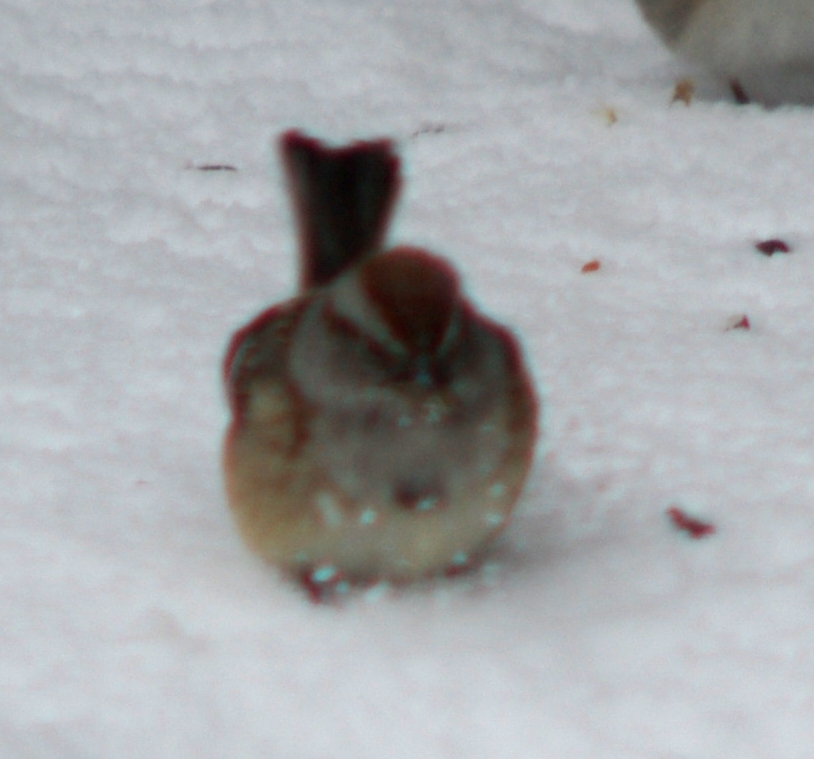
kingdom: Animalia
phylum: Chordata
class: Aves
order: Passeriformes
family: Passerellidae
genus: Spizelloides
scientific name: Spizelloides arborea
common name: American tree sparrow
